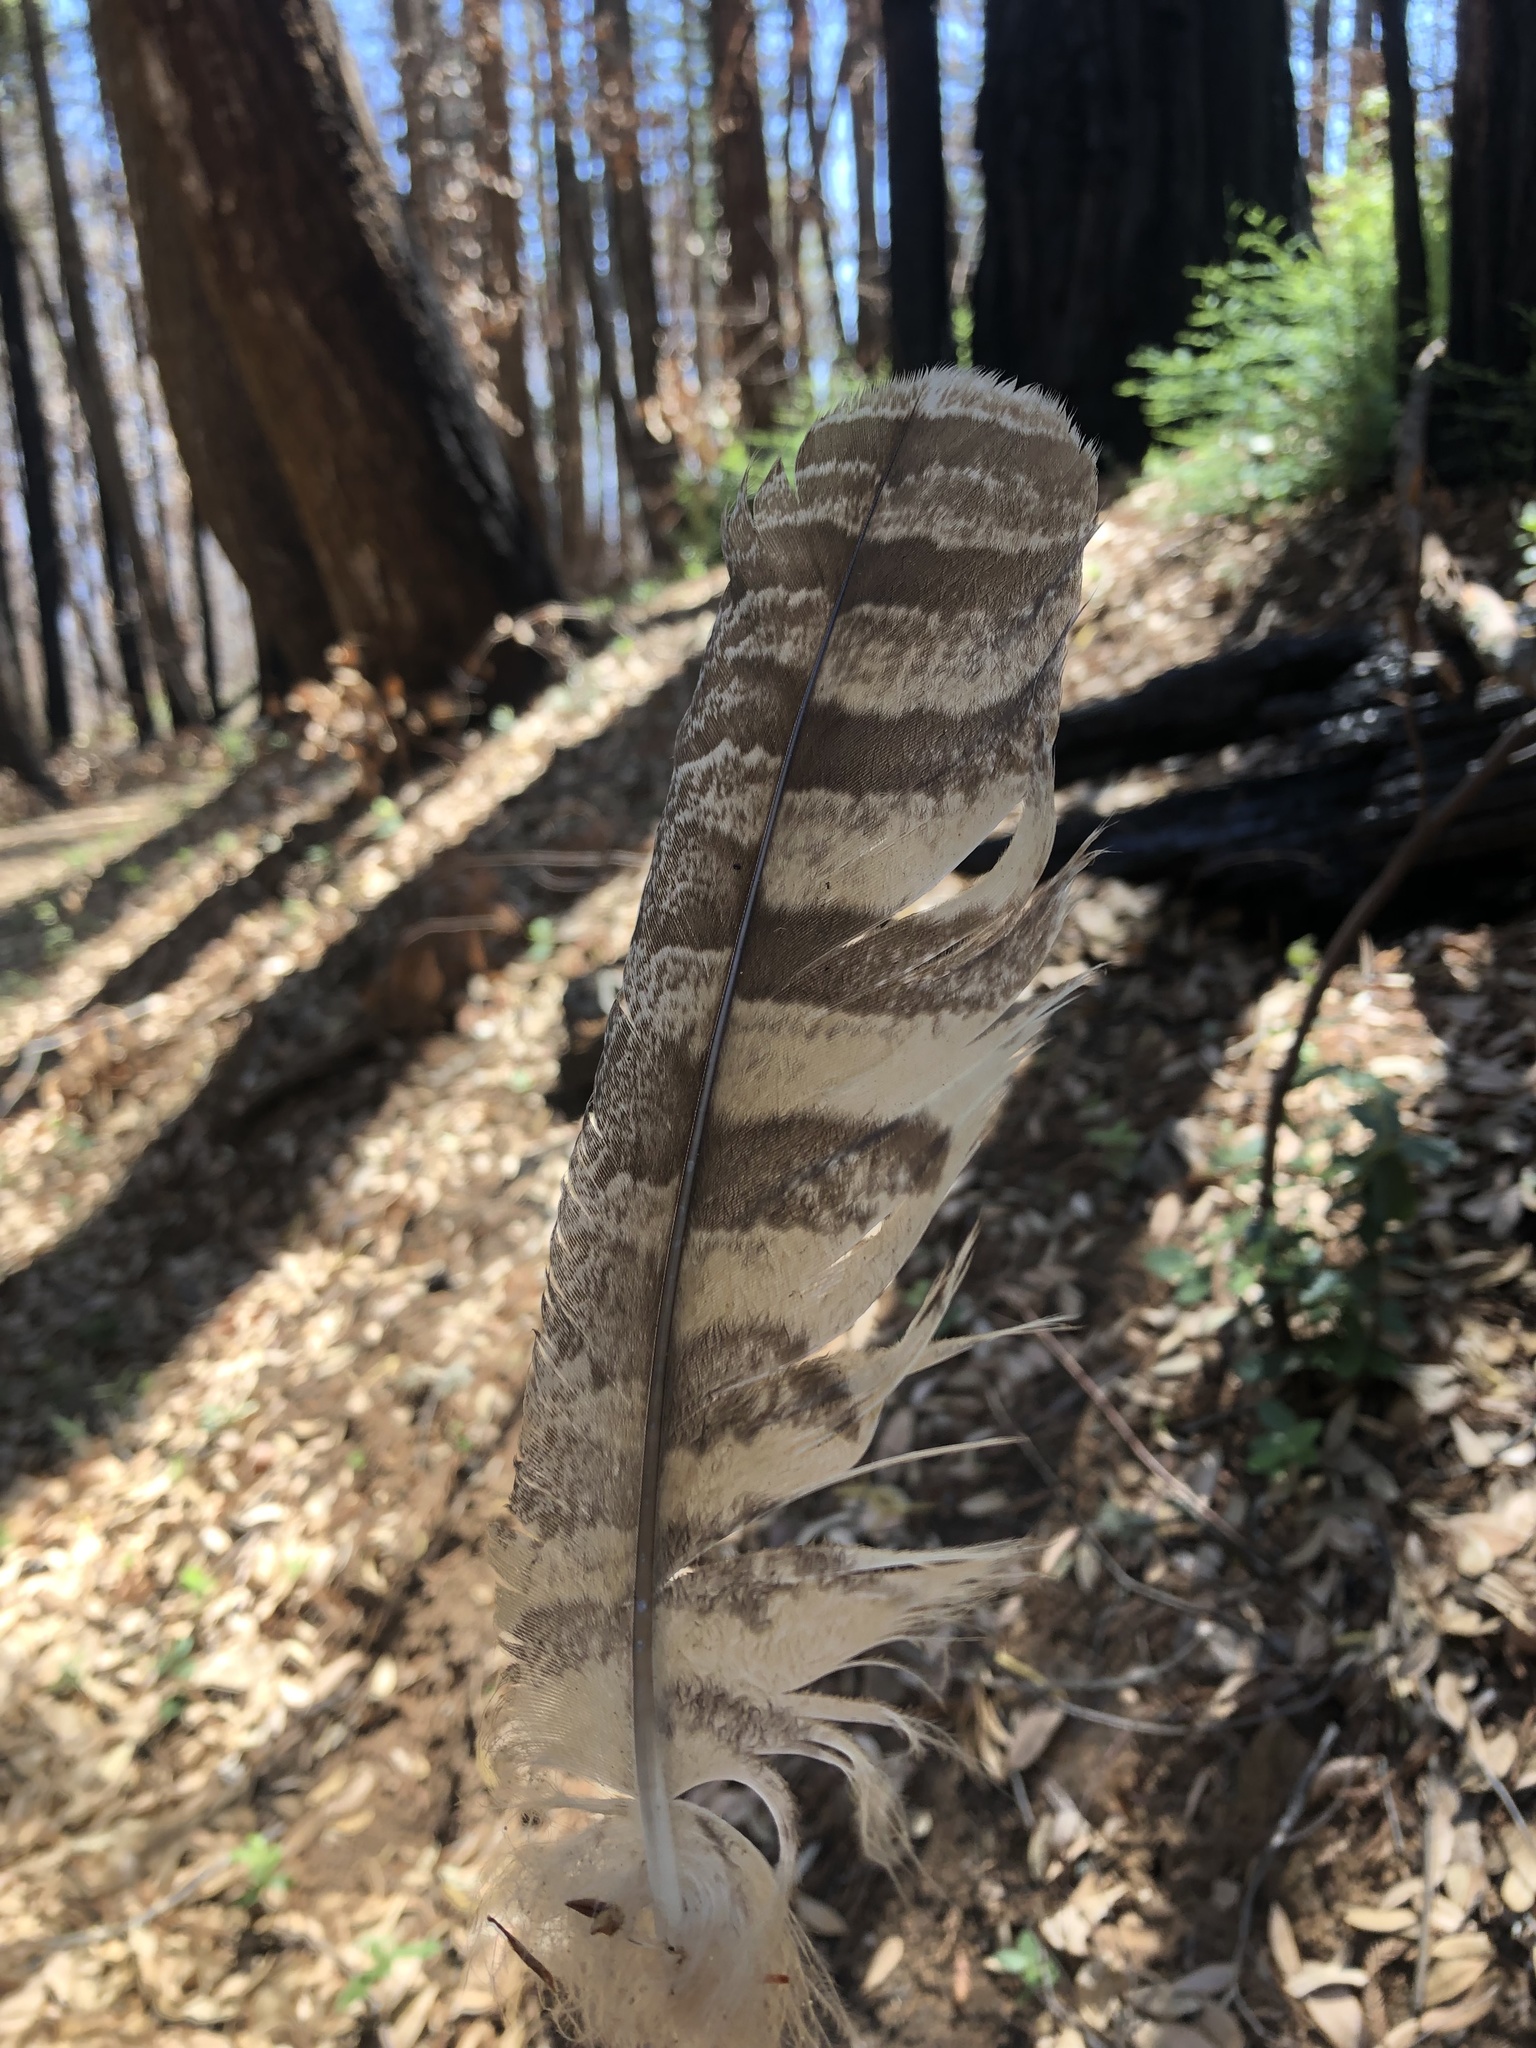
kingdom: Animalia
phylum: Chordata
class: Aves
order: Strigiformes
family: Strigidae
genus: Bubo
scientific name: Bubo virginianus
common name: Great horned owl
